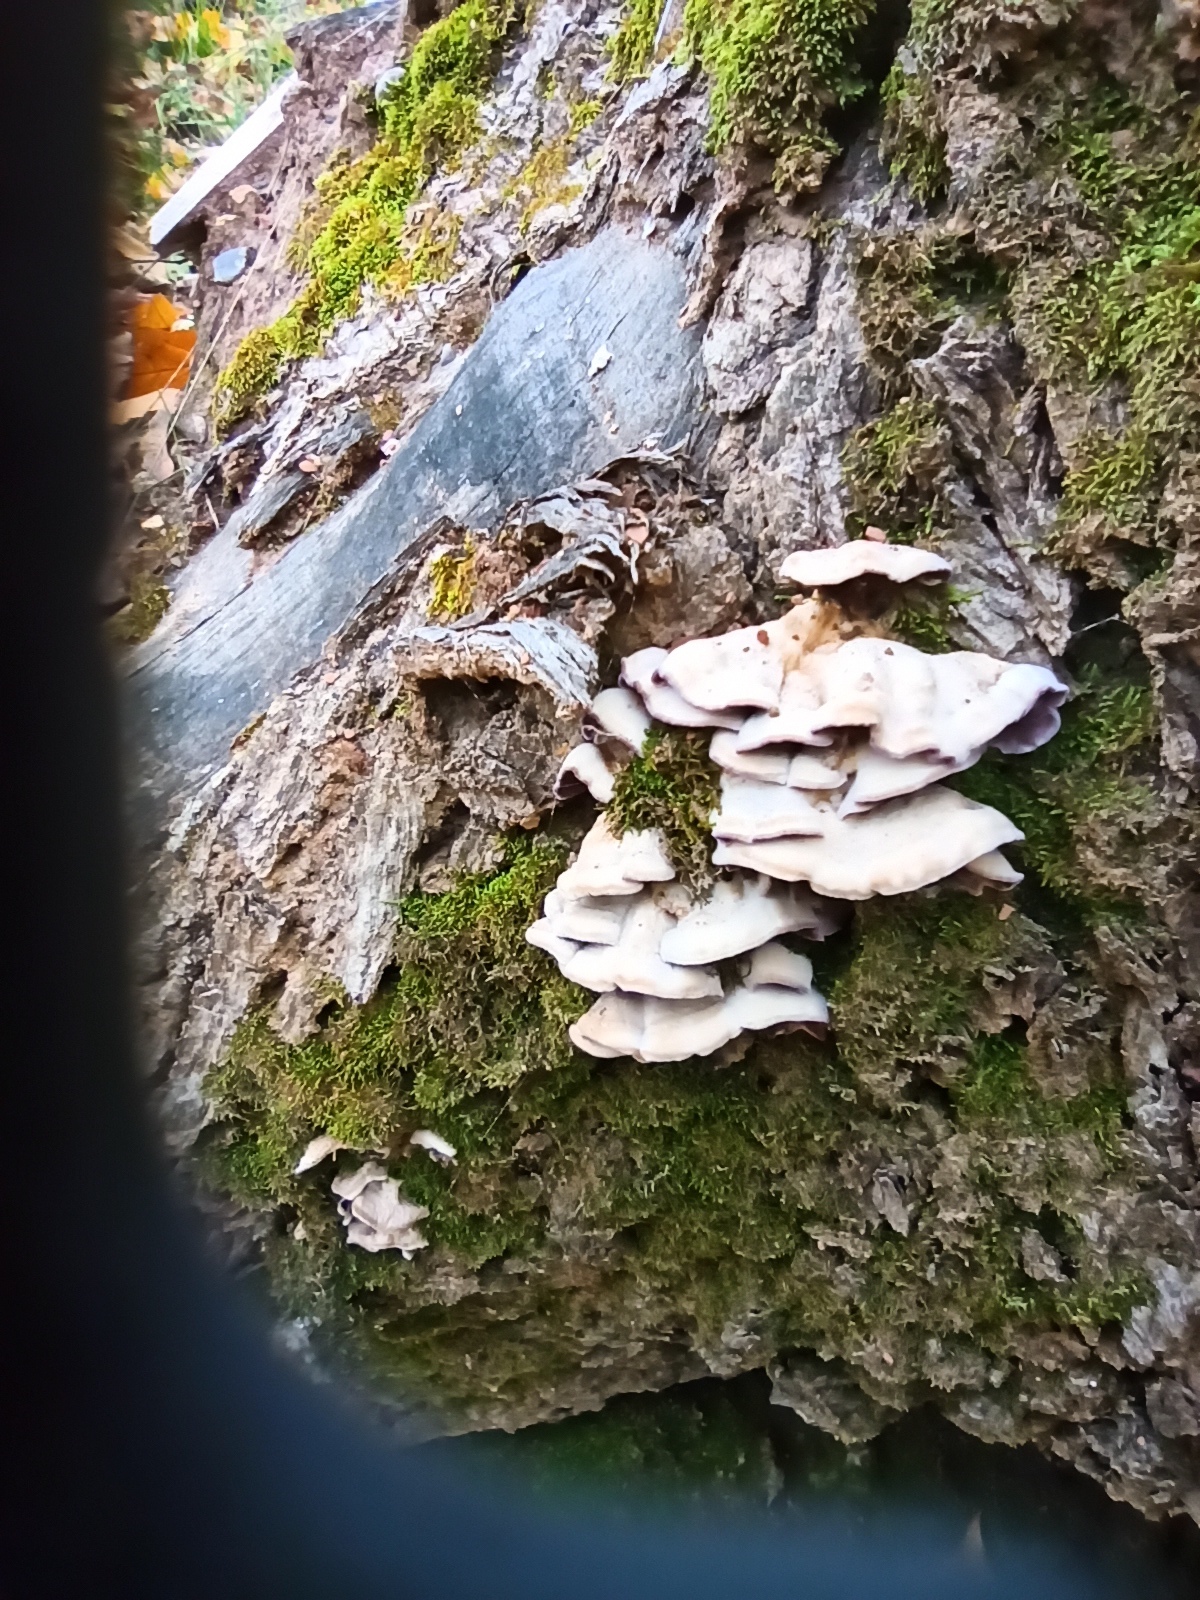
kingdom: Fungi
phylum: Basidiomycota
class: Agaricomycetes
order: Agaricales
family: Cyphellaceae
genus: Chondrostereum
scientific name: Chondrostereum purpureum
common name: Silver leaf disease
